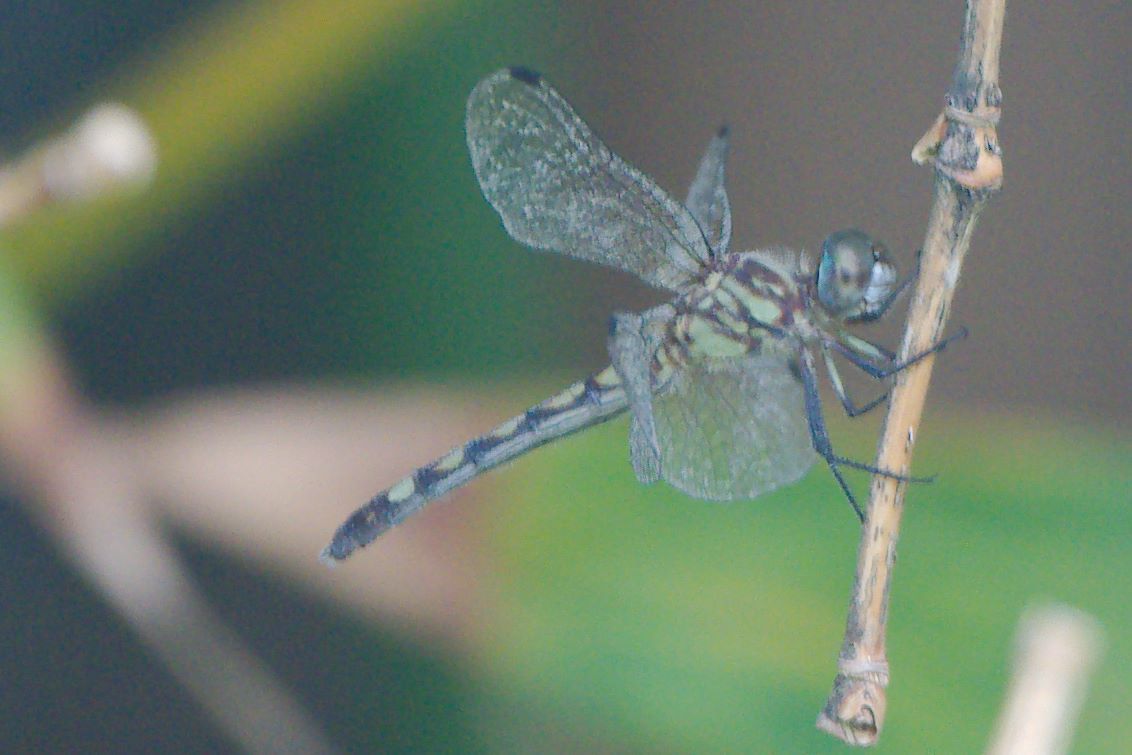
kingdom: Animalia
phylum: Arthropoda
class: Insecta
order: Odonata
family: Libellulidae
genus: Micrathyria
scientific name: Micrathyria hagenii
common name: Thornbush dasher
